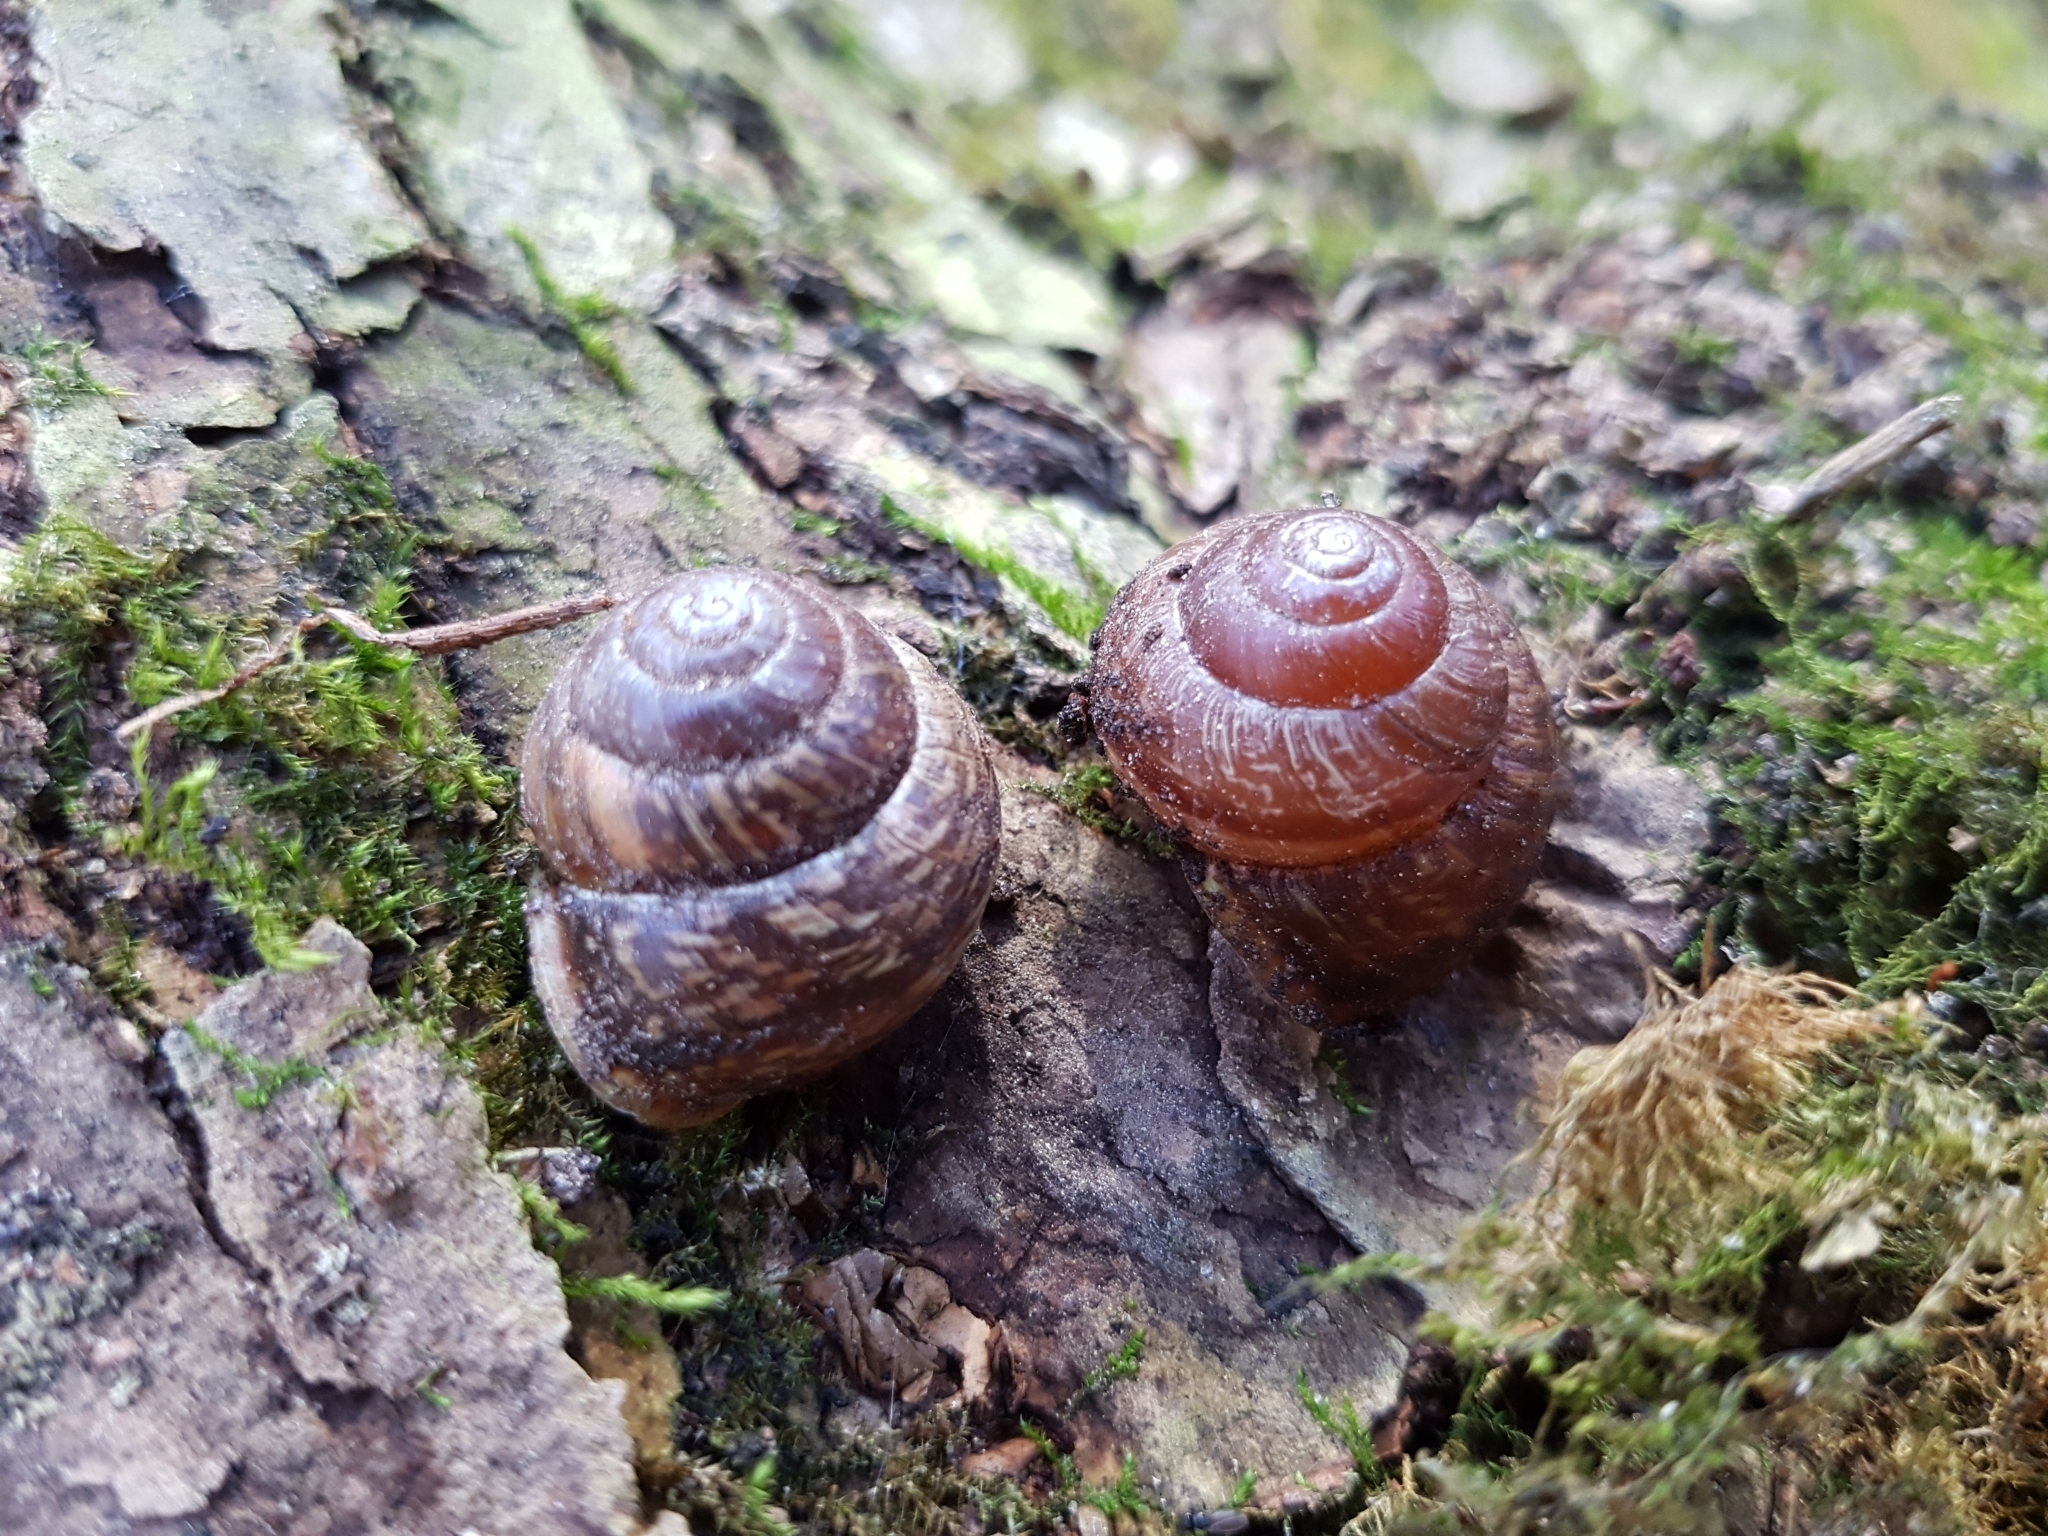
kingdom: Animalia
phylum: Mollusca
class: Gastropoda
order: Stylommatophora
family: Helicidae
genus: Arianta
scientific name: Arianta arbustorum
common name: Copse snail
